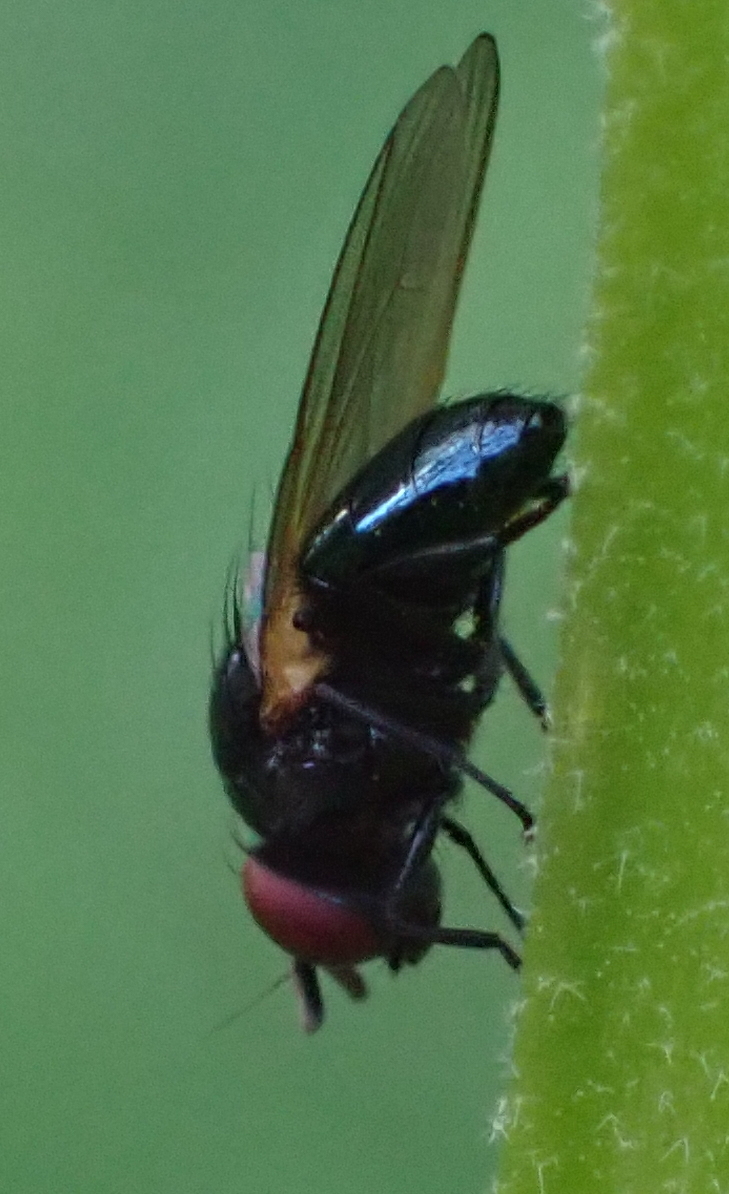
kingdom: Animalia
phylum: Arthropoda
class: Insecta
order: Diptera
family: Lonchaeidae
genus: Silba
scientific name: Silba fumosa
